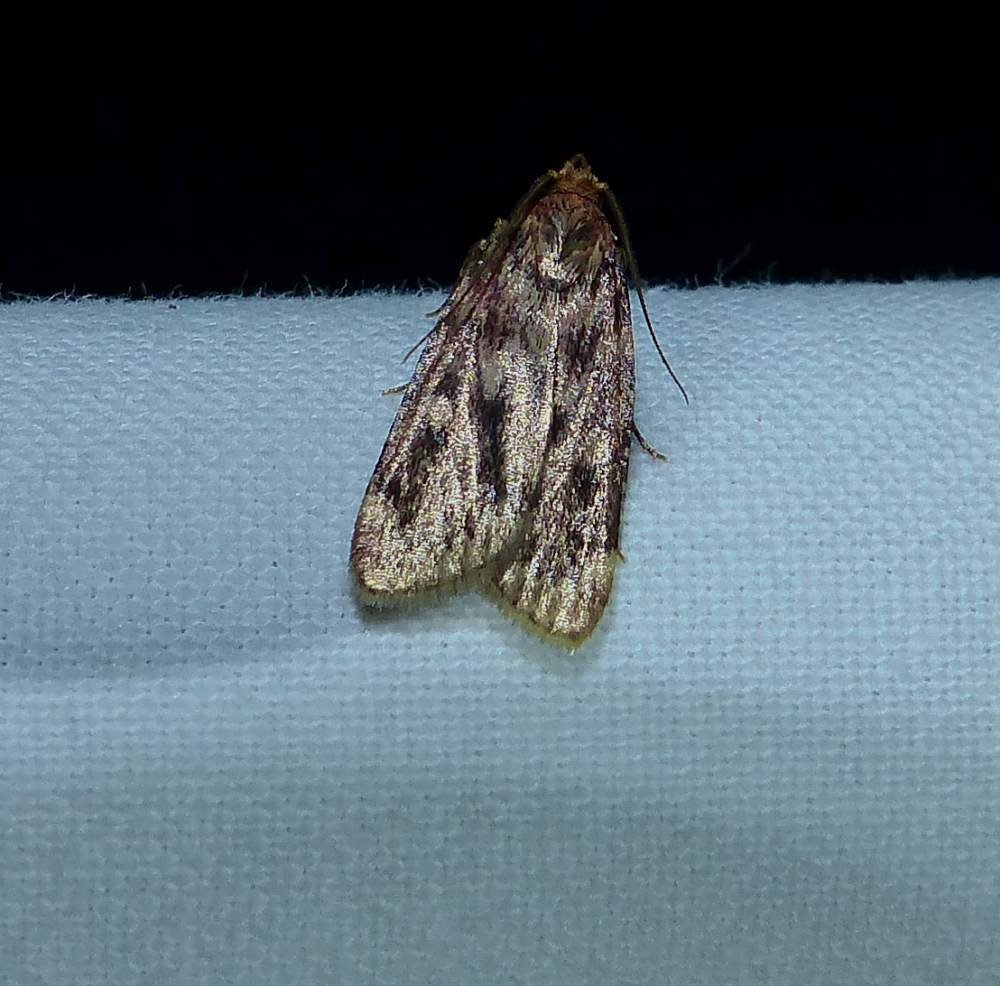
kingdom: Animalia
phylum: Arthropoda
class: Insecta
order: Lepidoptera
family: Pyralidae
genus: Aglossa
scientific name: Aglossa cuprina
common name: Grease moth
